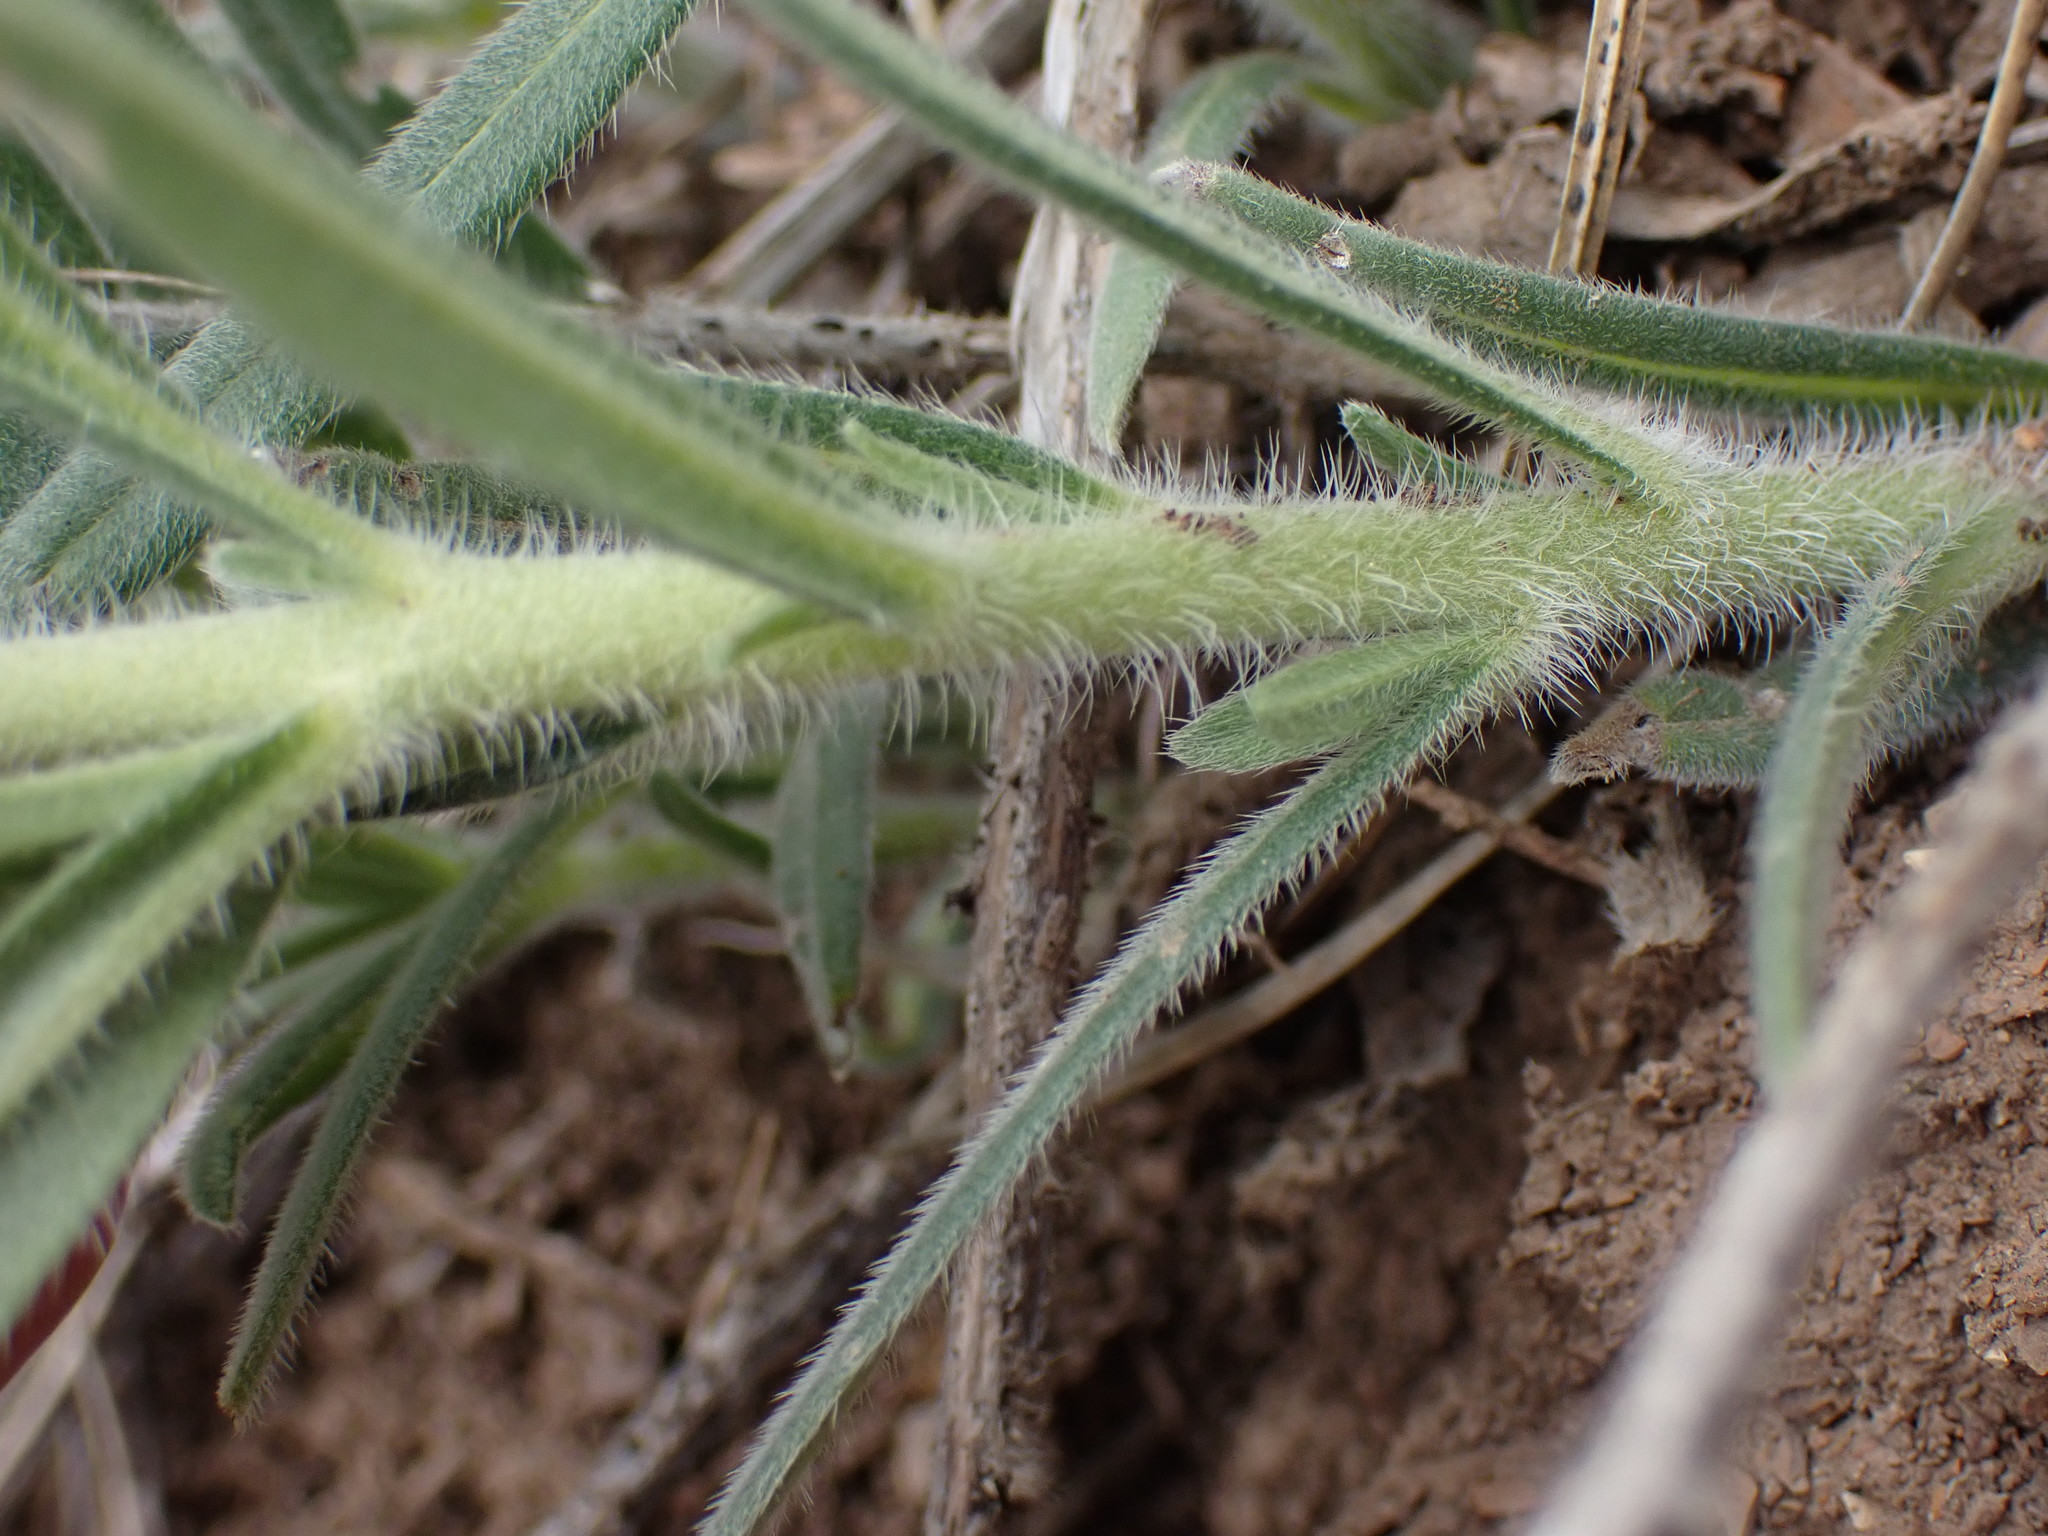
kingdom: Plantae
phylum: Tracheophyta
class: Magnoliopsida
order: Boraginales
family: Boraginaceae
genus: Lithospermum
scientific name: Lithospermum ruderale
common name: Western gromwell
